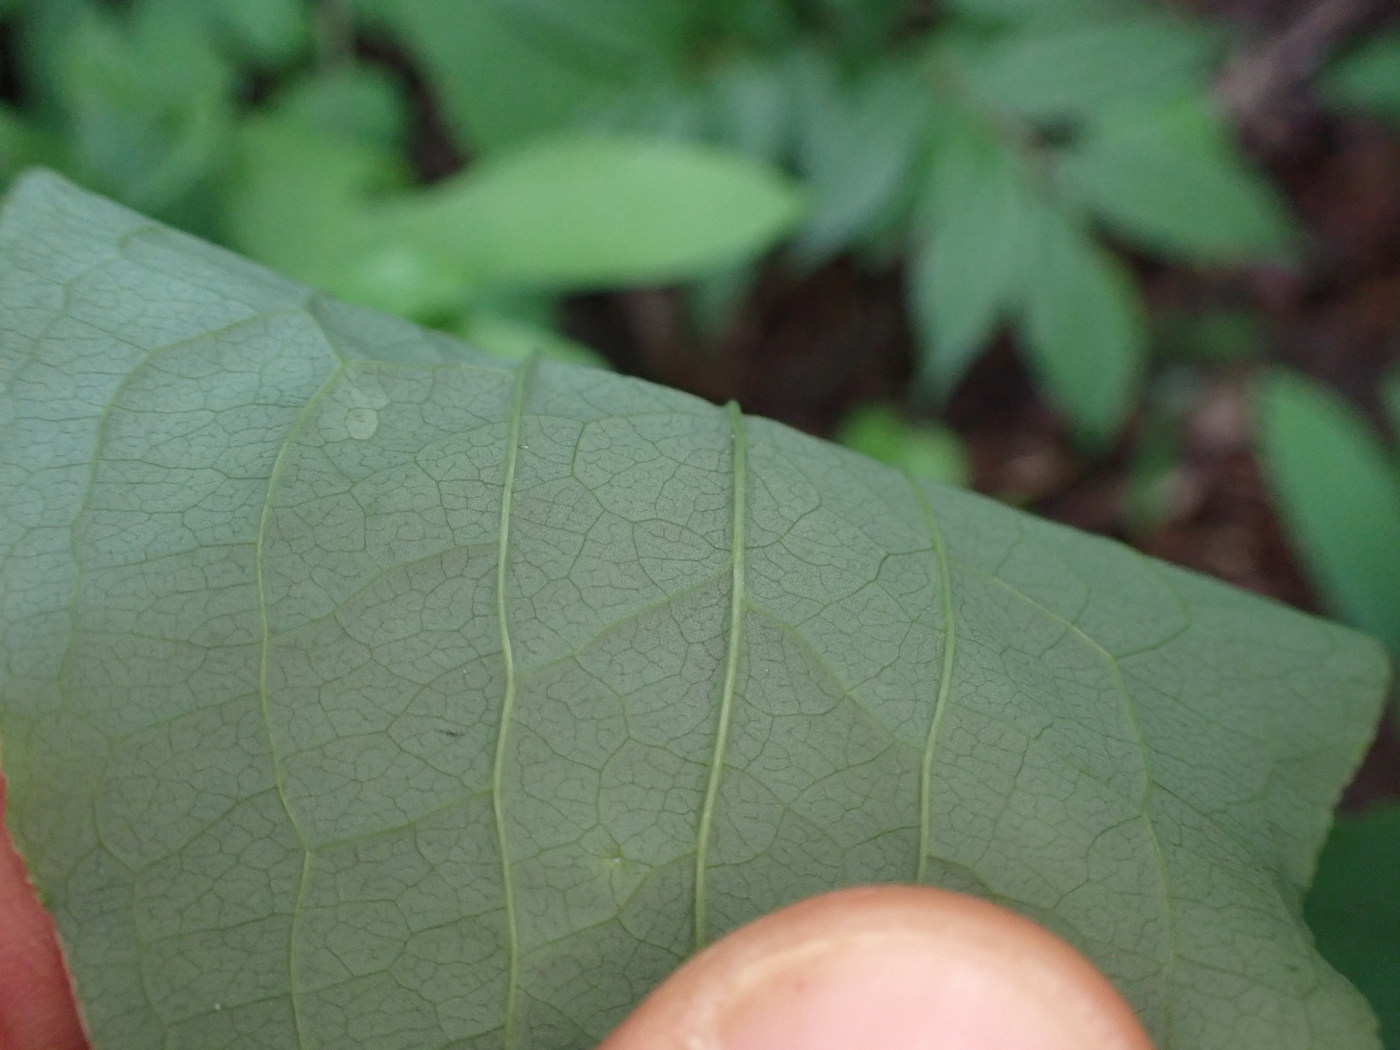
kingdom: Plantae
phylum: Tracheophyta
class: Liliopsida
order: Liliales
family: Smilacaceae
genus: Smilax
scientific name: Smilax herbacea
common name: Jacob's-ladder
